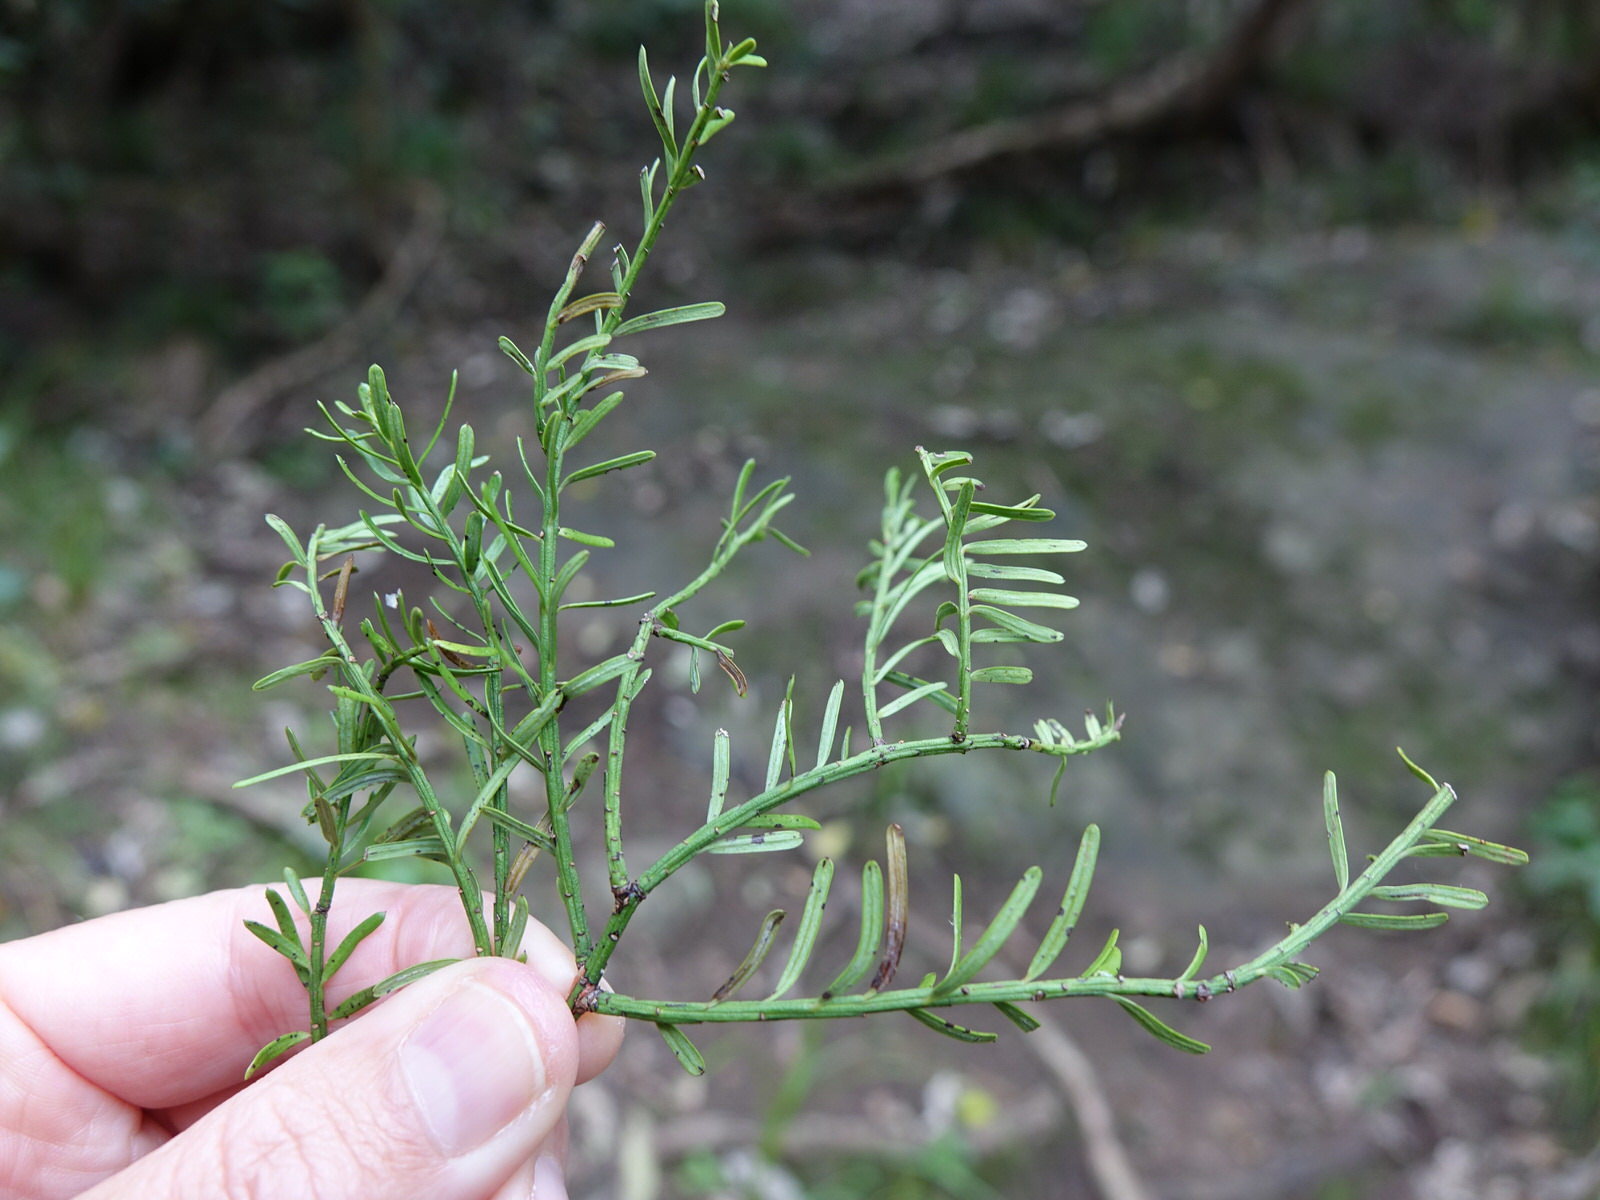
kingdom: Plantae
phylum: Tracheophyta
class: Pinopsida
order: Pinales
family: Podocarpaceae
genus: Prumnopitys
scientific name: Prumnopitys taxifolia
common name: Matai
